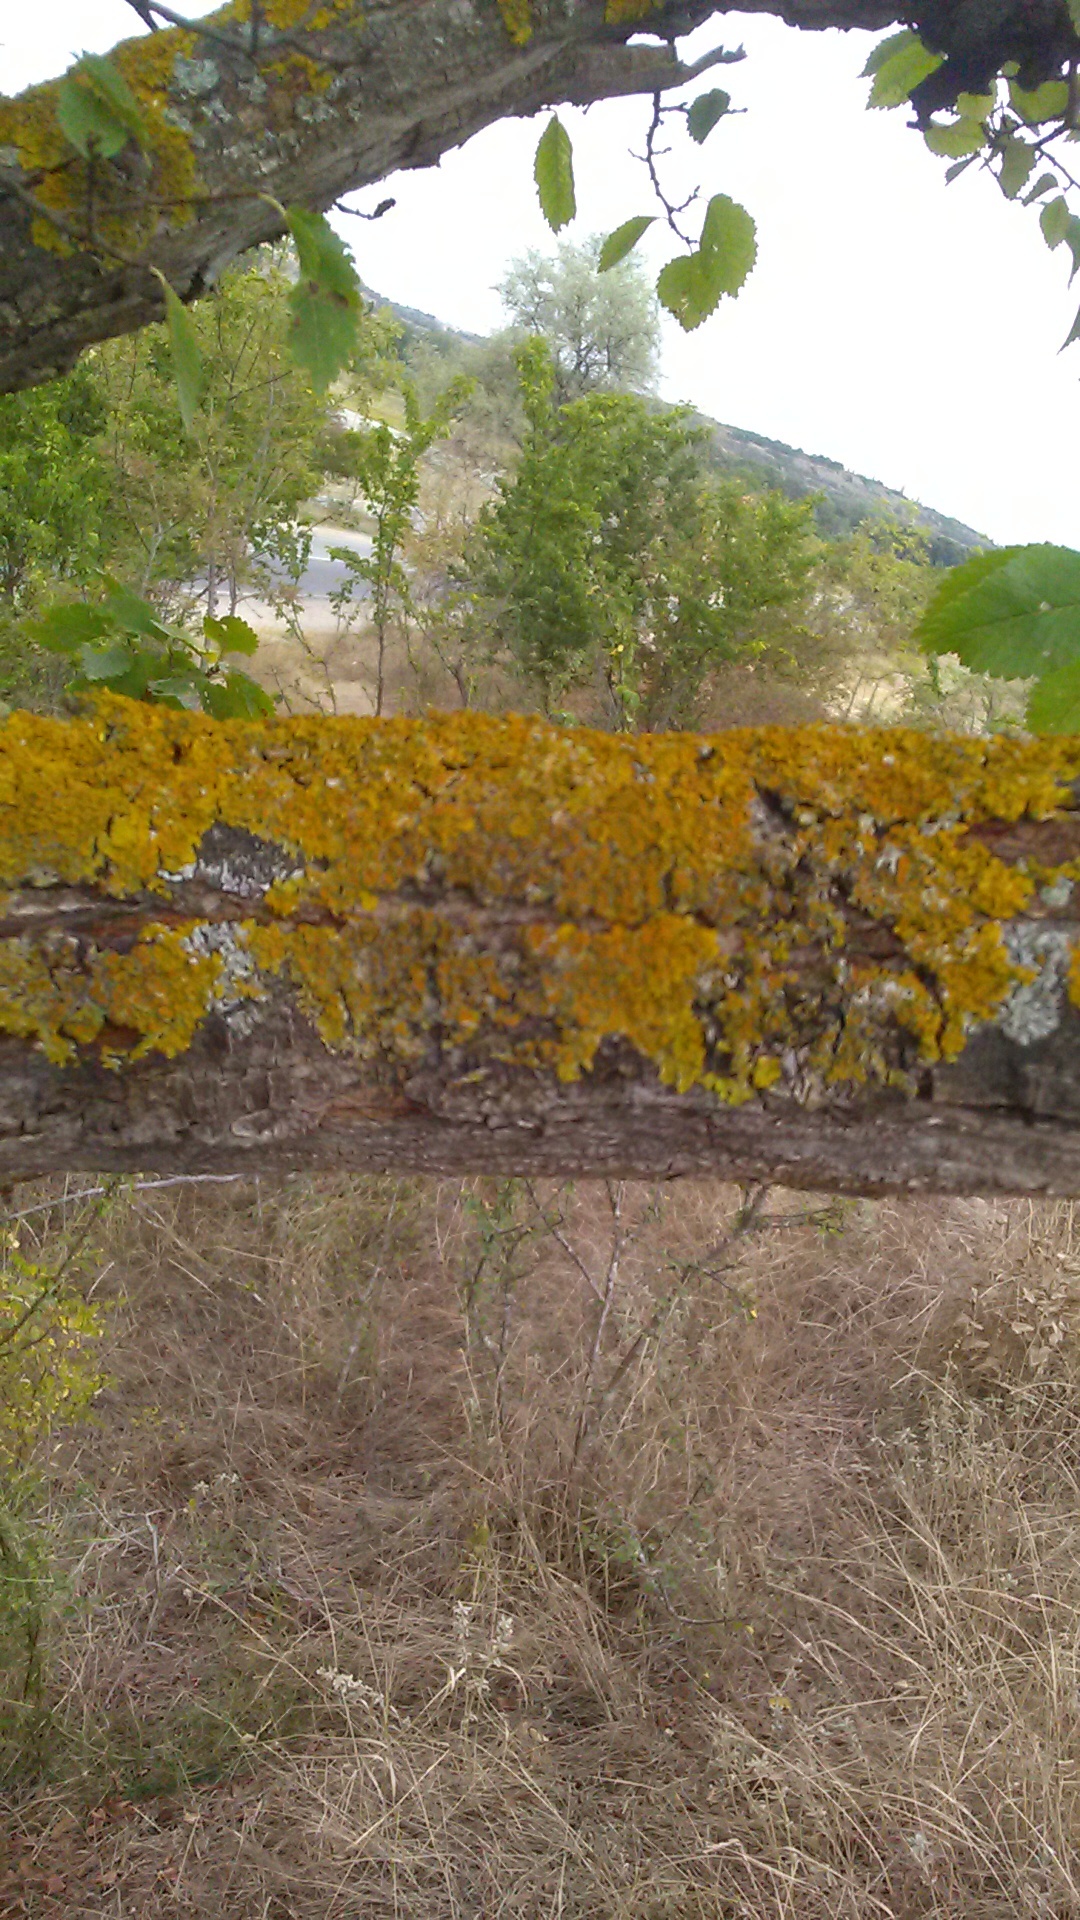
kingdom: Fungi
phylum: Ascomycota
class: Lecanoromycetes
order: Teloschistales
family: Teloschistaceae
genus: Xanthoria
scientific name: Xanthoria parietina
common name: Common orange lichen
